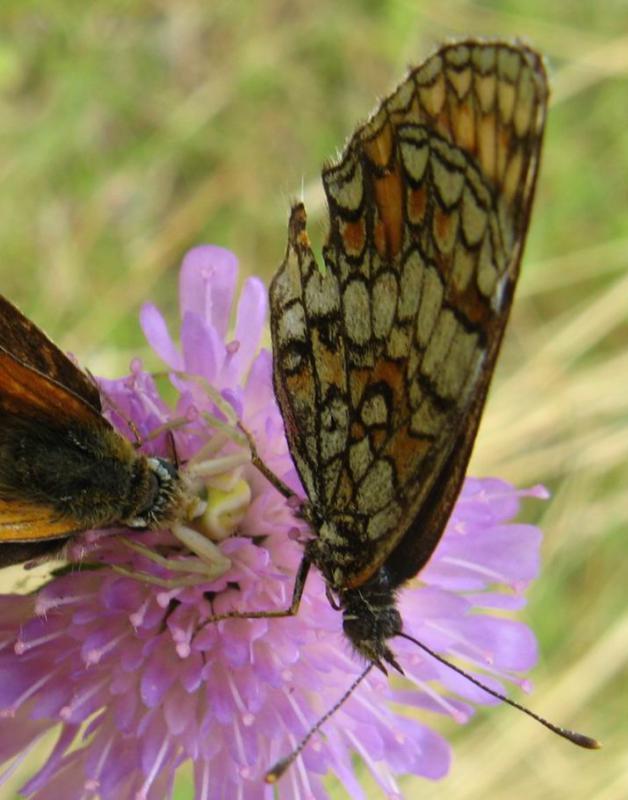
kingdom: Animalia
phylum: Arthropoda
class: Insecta
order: Lepidoptera
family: Nymphalidae
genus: Melitaea
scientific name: Melitaea athalia
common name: Heath fritillary
